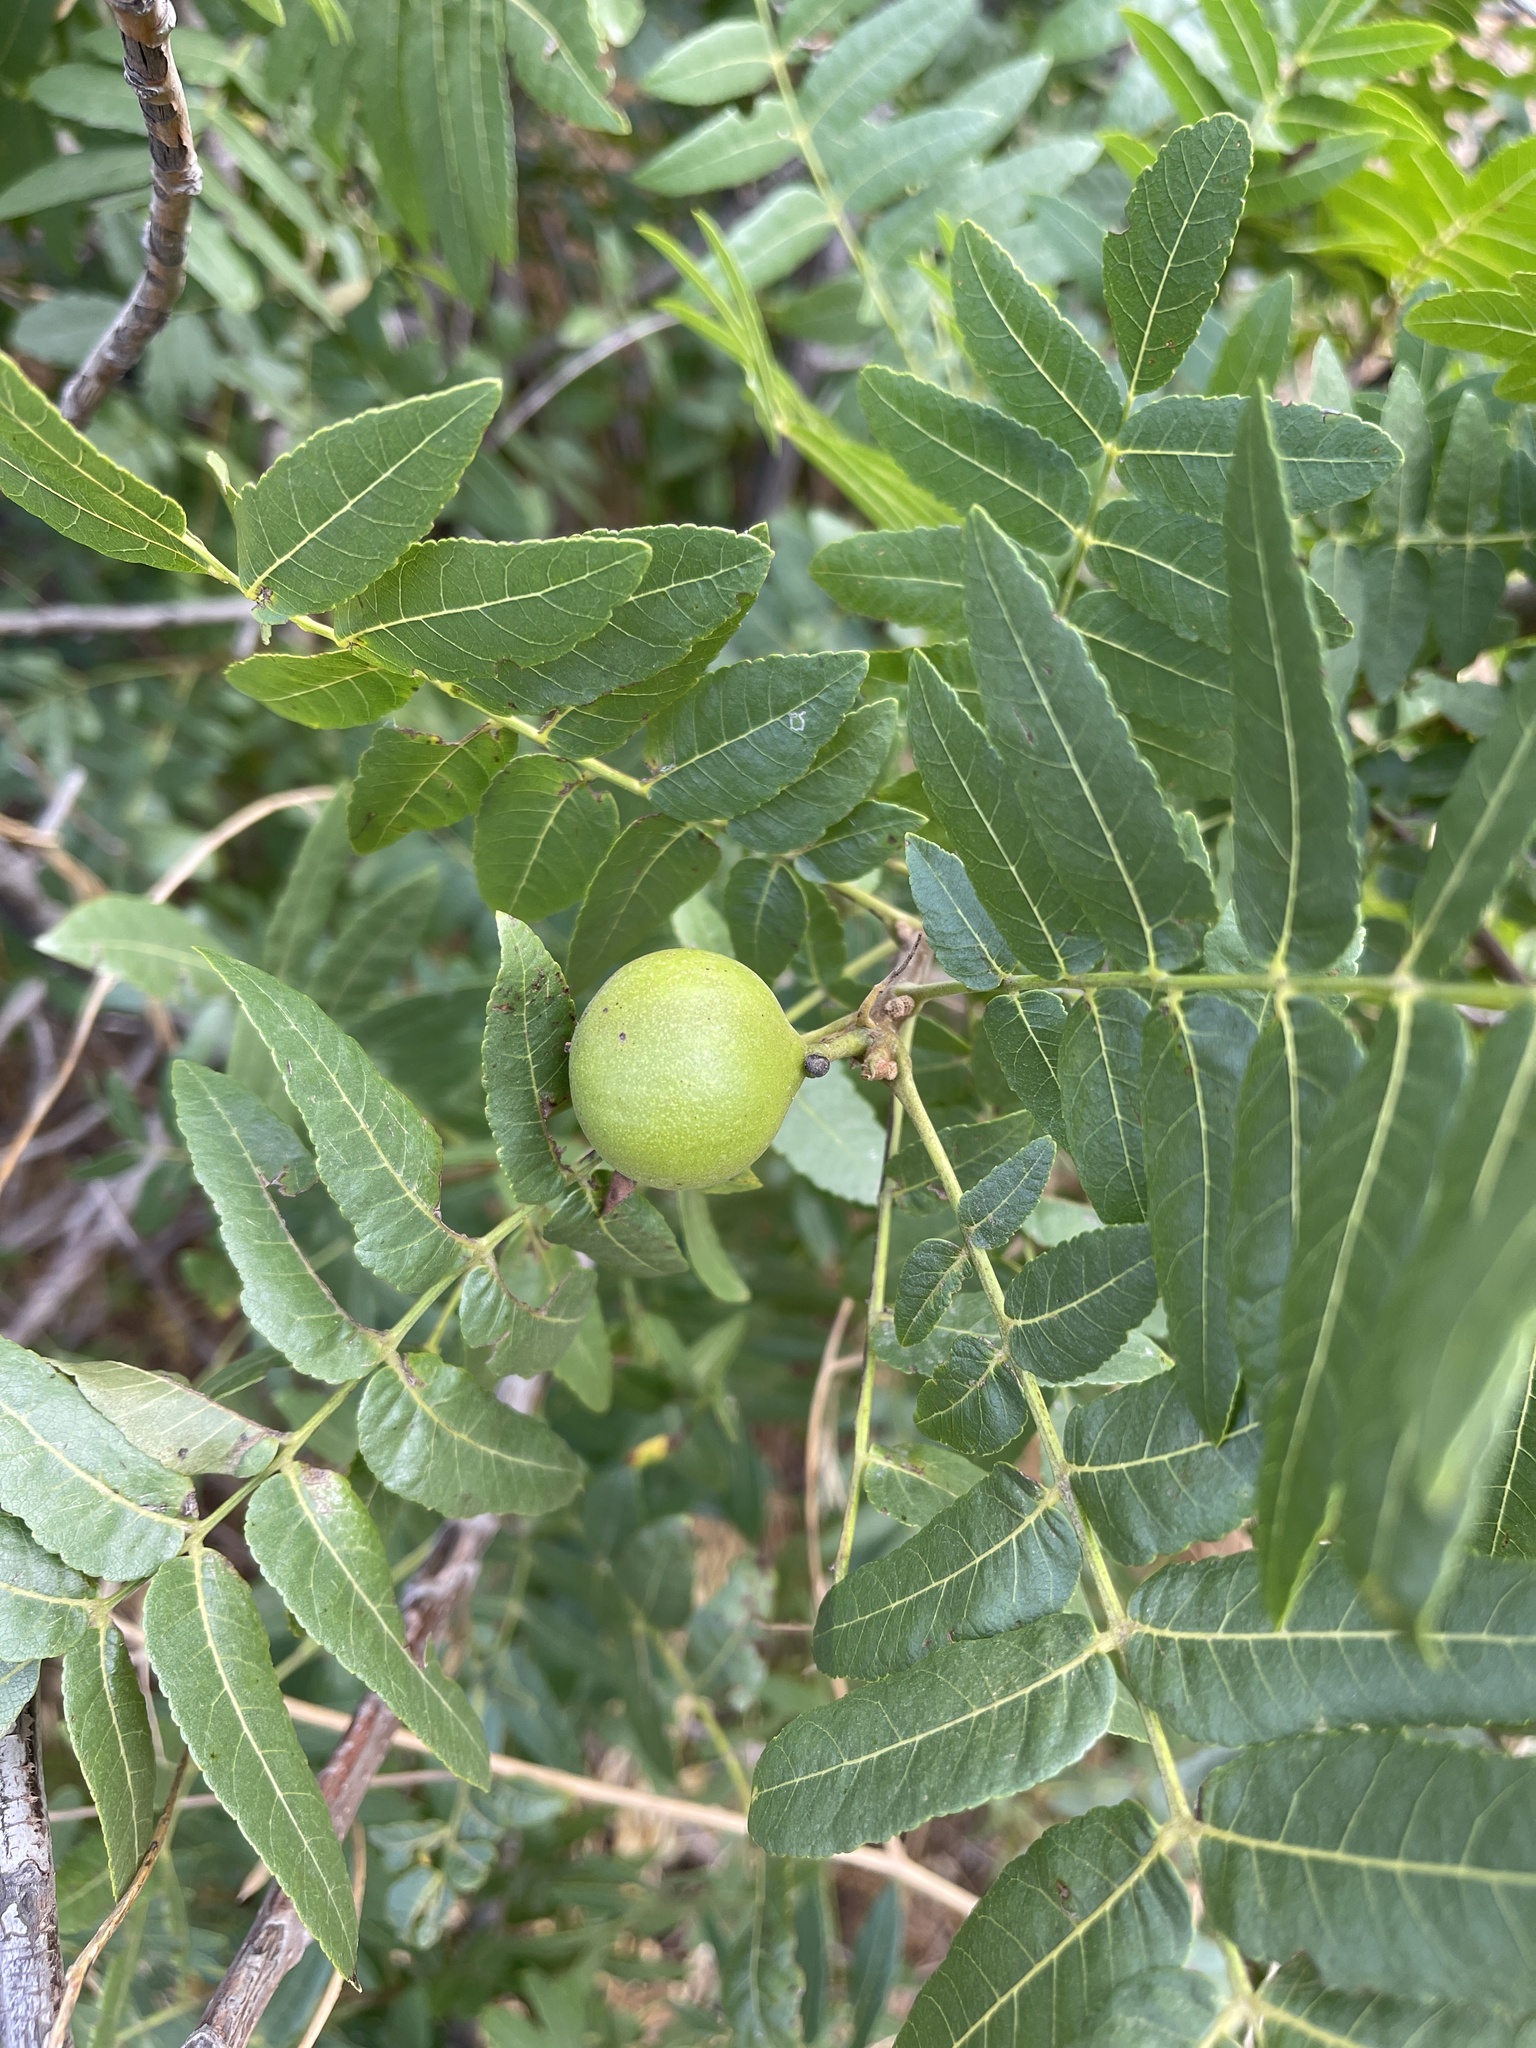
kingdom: Plantae
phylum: Tracheophyta
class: Magnoliopsida
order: Fagales
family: Juglandaceae
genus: Juglans
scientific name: Juglans californica
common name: Southern california black walnut
